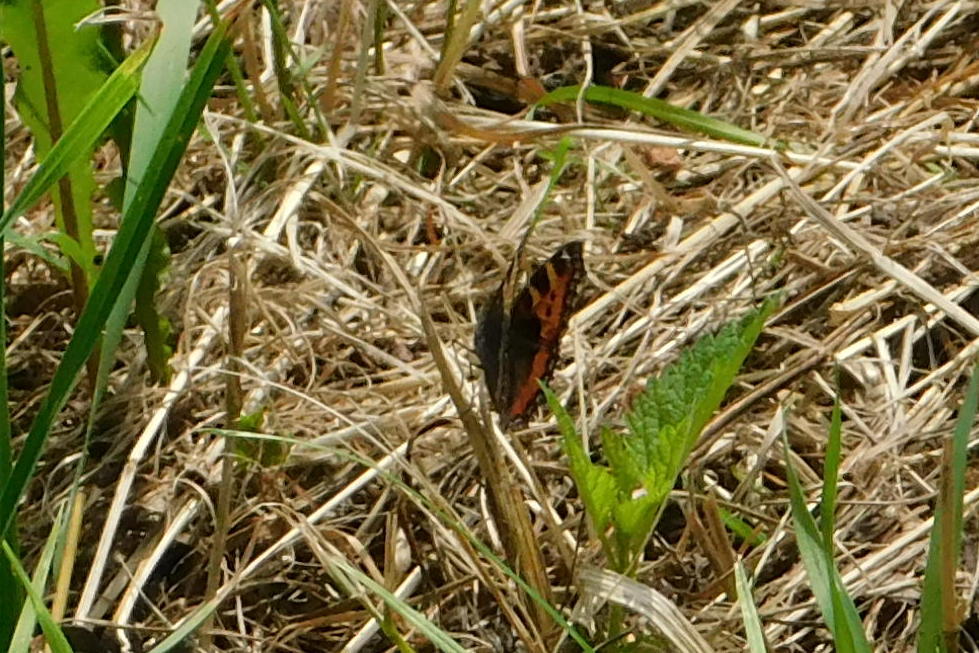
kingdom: Animalia
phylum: Arthropoda
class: Insecta
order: Lepidoptera
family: Nymphalidae
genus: Aglais
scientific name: Aglais urticae
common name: Small tortoiseshell
